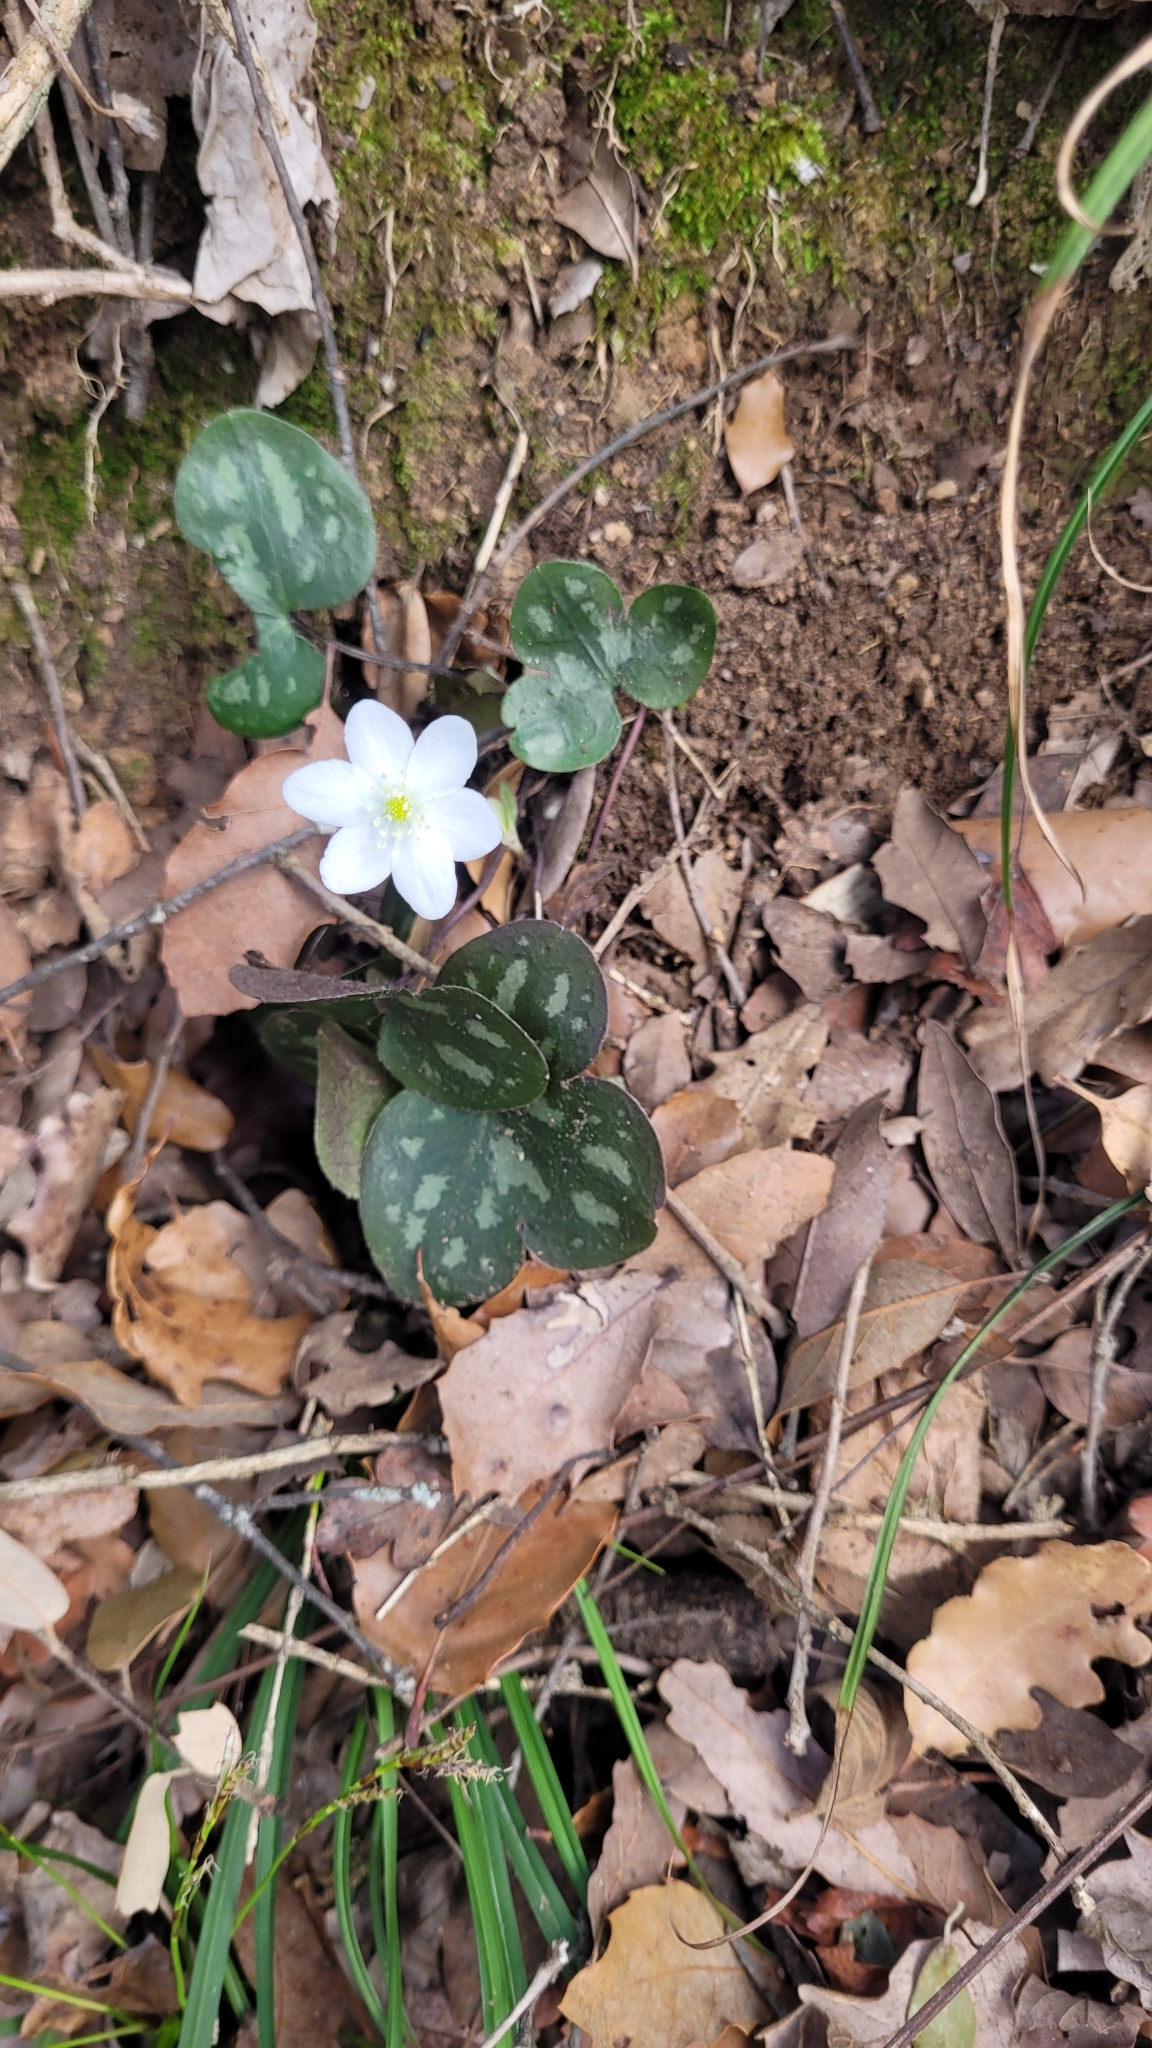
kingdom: Plantae
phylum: Tracheophyta
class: Magnoliopsida
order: Ranunculales
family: Ranunculaceae
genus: Hepatica
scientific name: Hepatica nobilis
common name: Liverleaf
